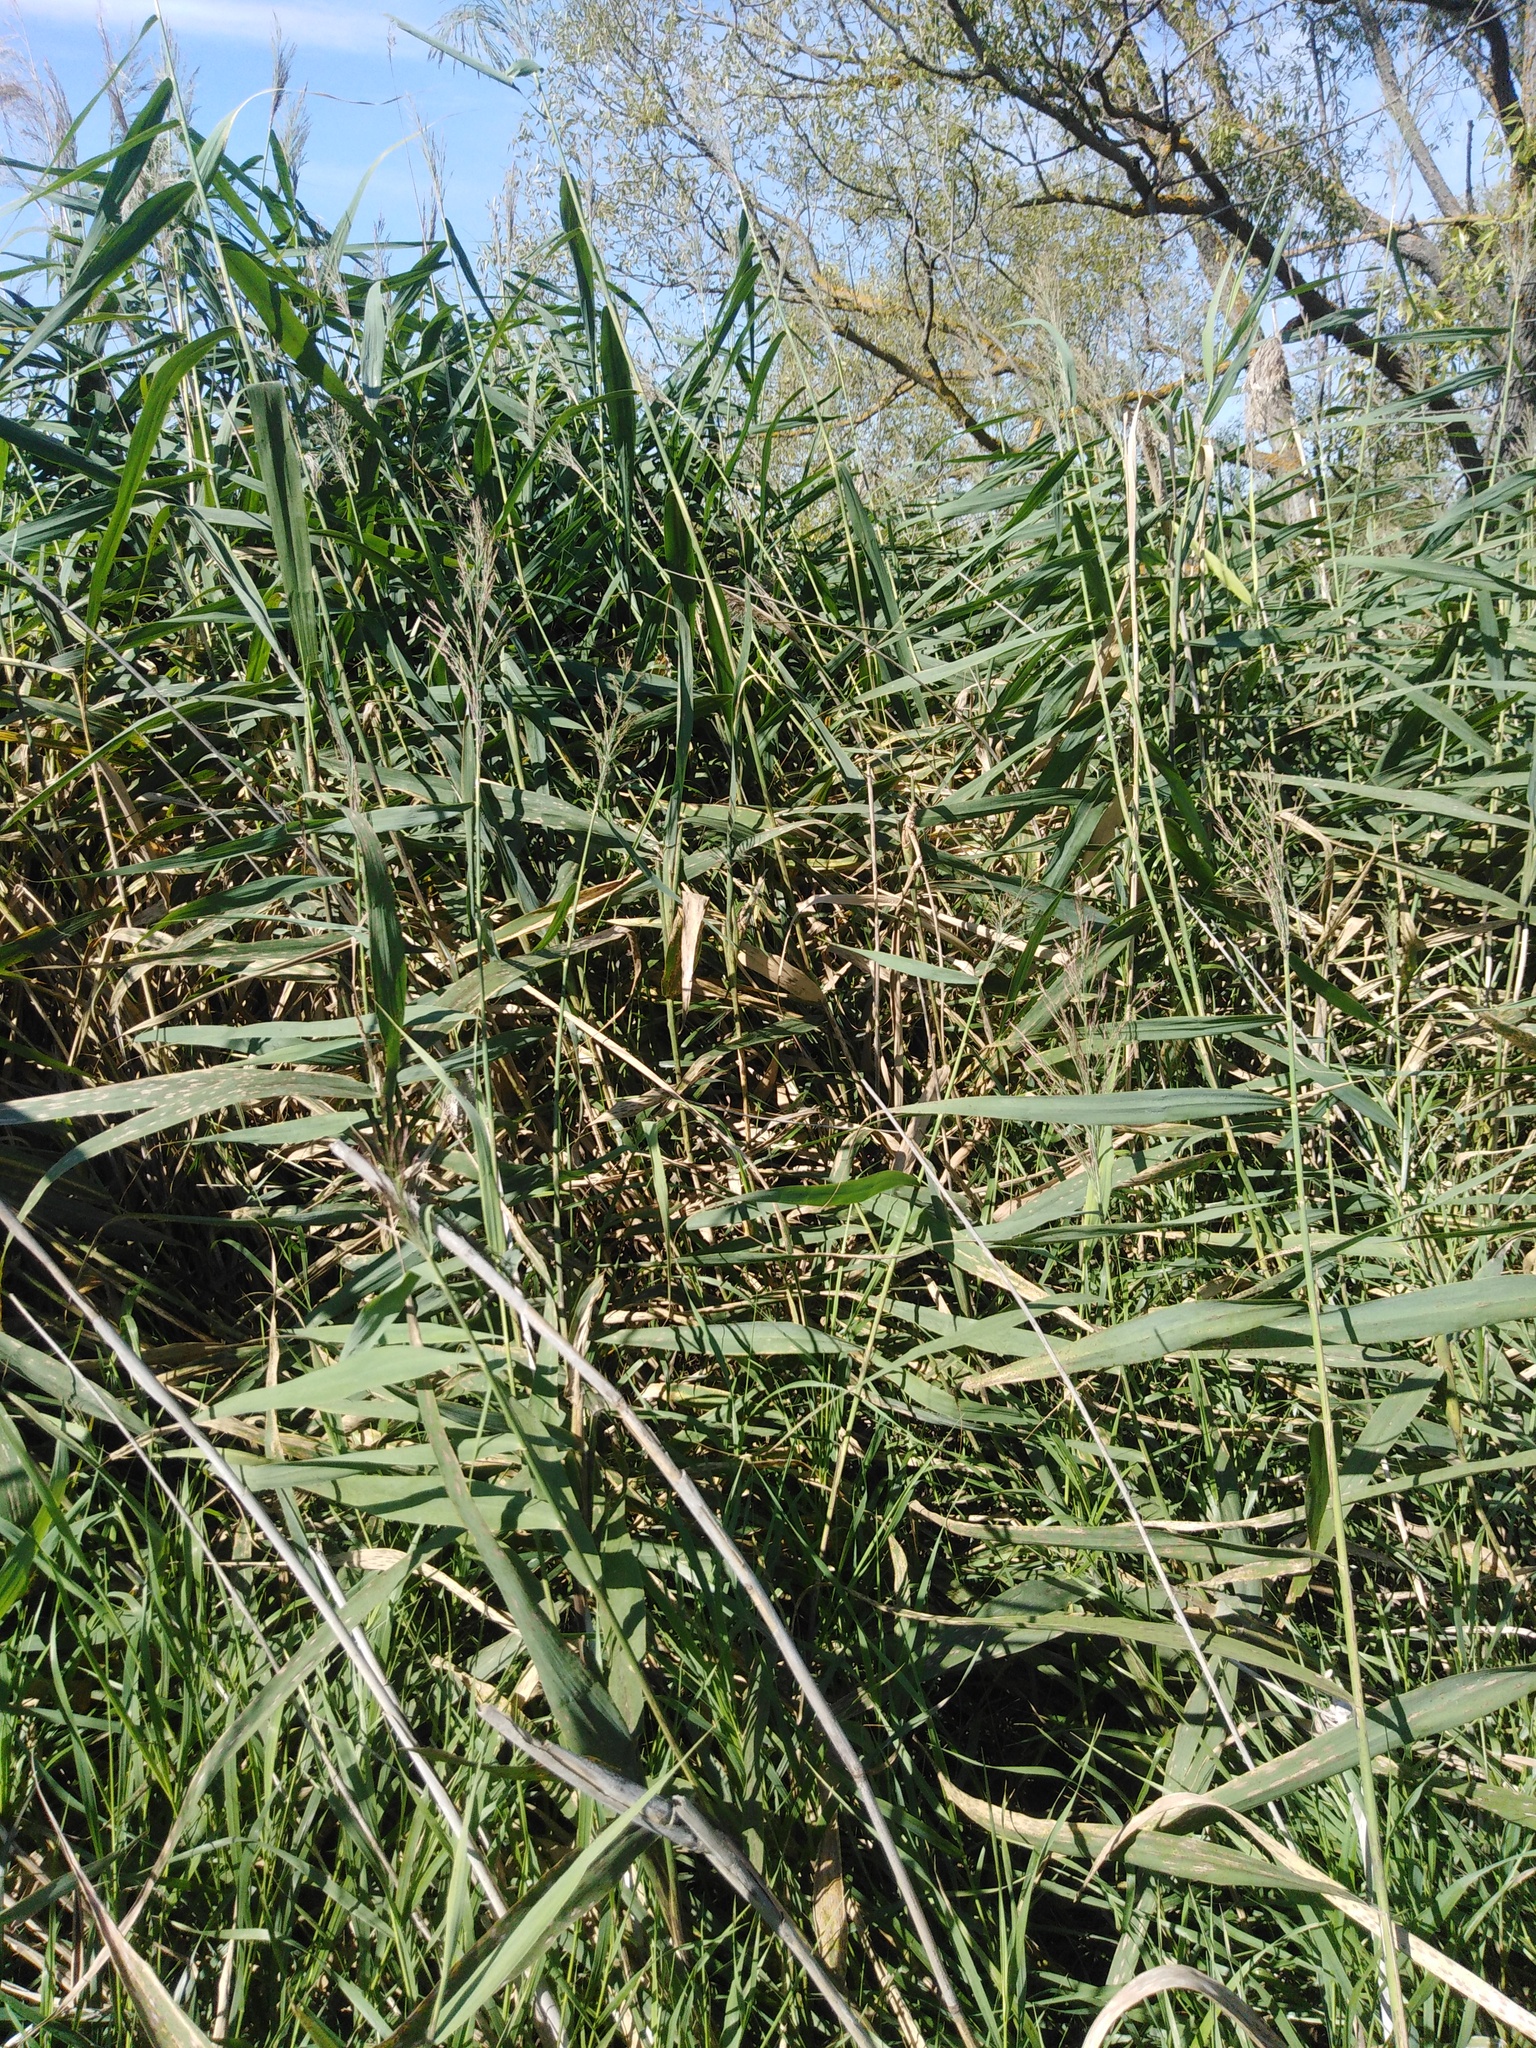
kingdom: Plantae
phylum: Tracheophyta
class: Liliopsida
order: Poales
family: Poaceae
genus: Phragmites
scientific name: Phragmites australis
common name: Common reed
